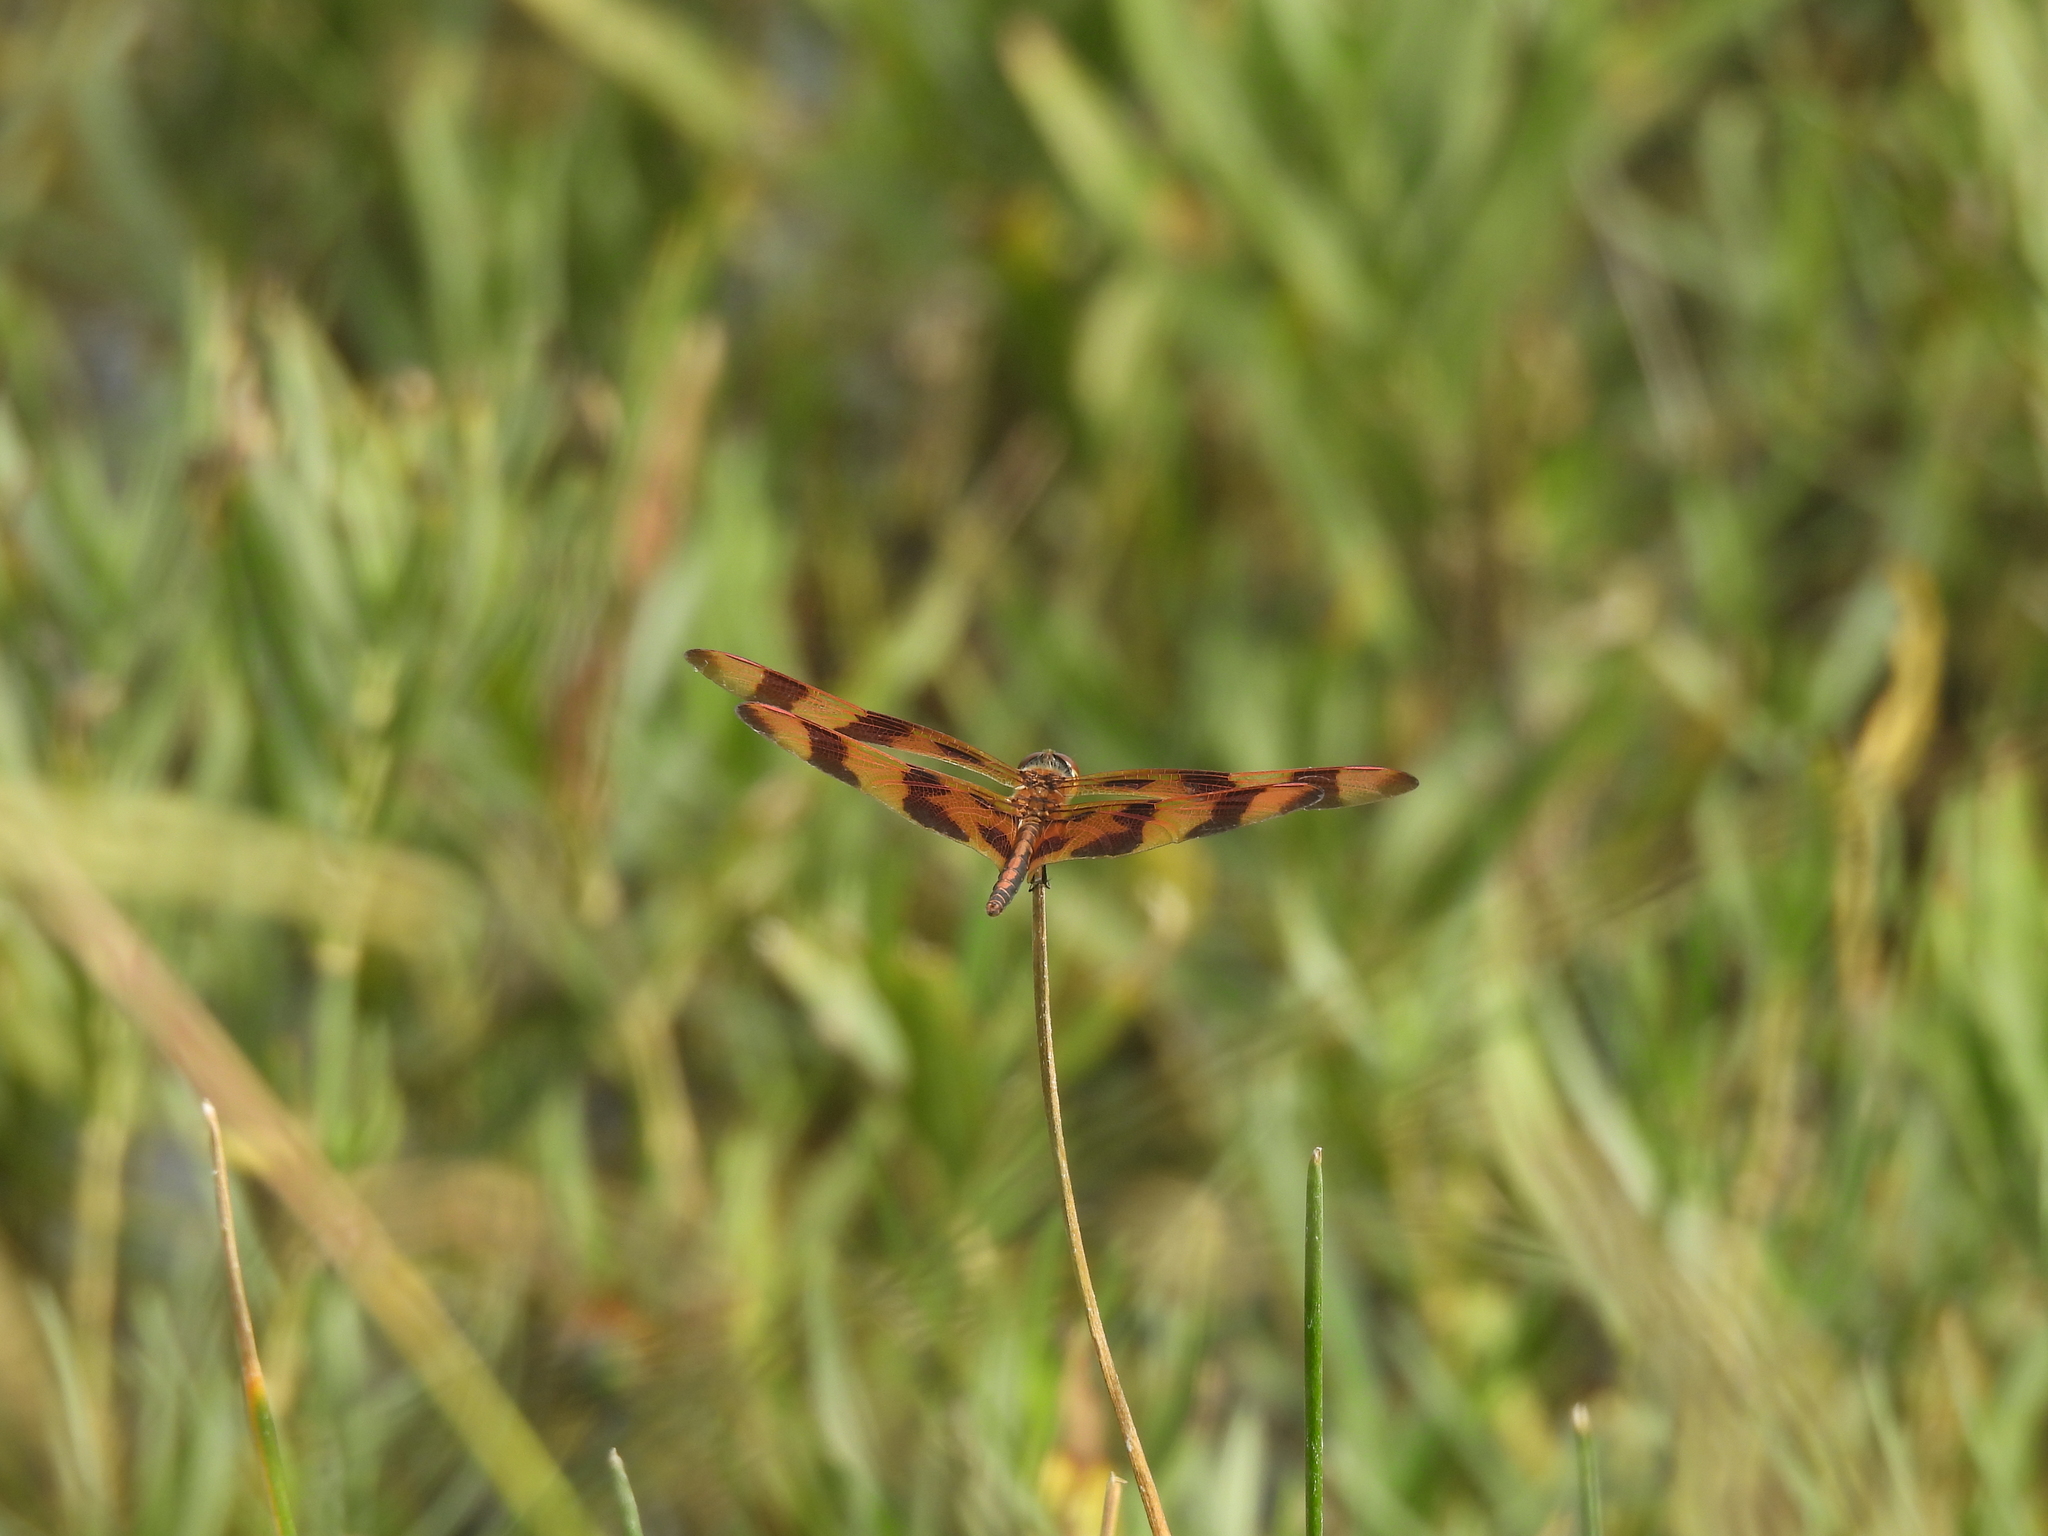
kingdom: Animalia
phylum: Arthropoda
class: Insecta
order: Odonata
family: Libellulidae
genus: Celithemis
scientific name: Celithemis eponina
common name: Halloween pennant
